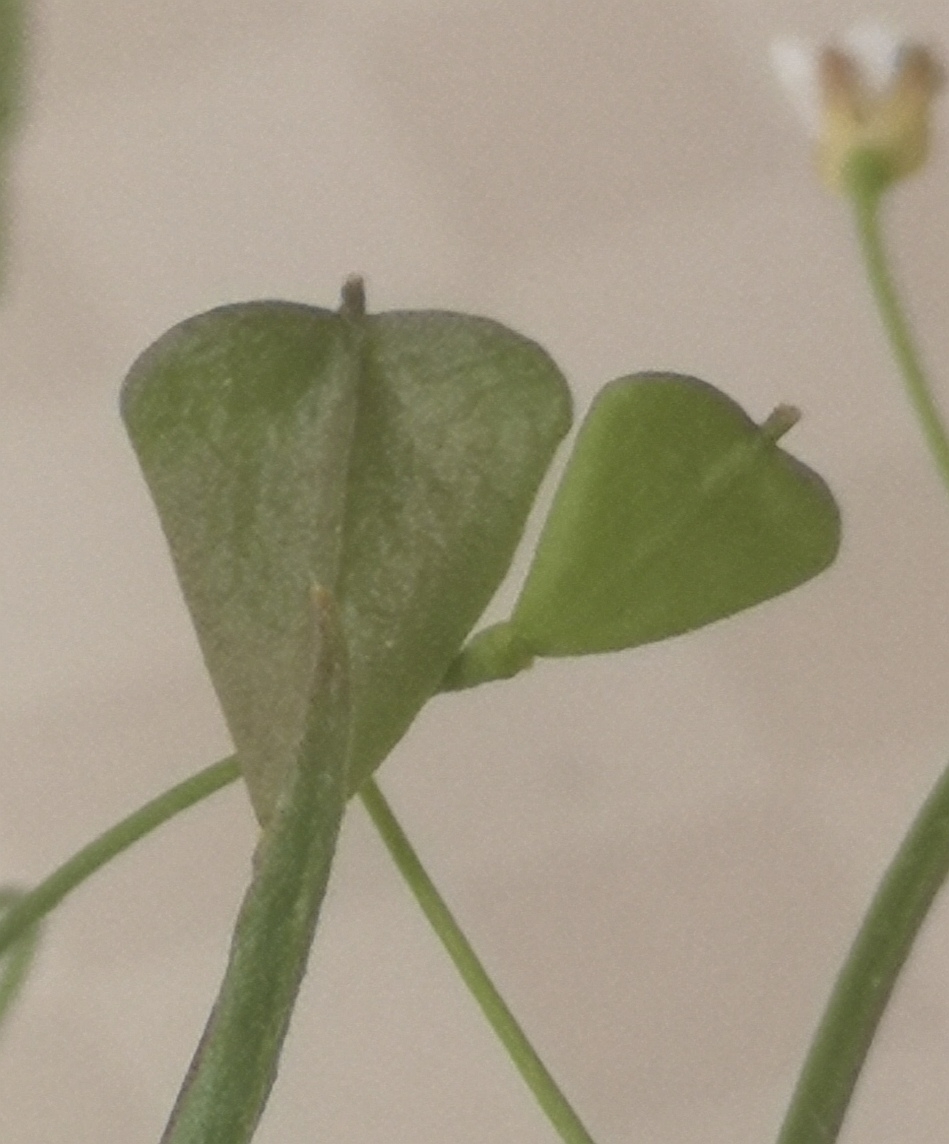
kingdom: Plantae
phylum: Tracheophyta
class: Magnoliopsida
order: Brassicales
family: Brassicaceae
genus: Capsella
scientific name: Capsella bursa-pastoris
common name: Shepherd's purse
